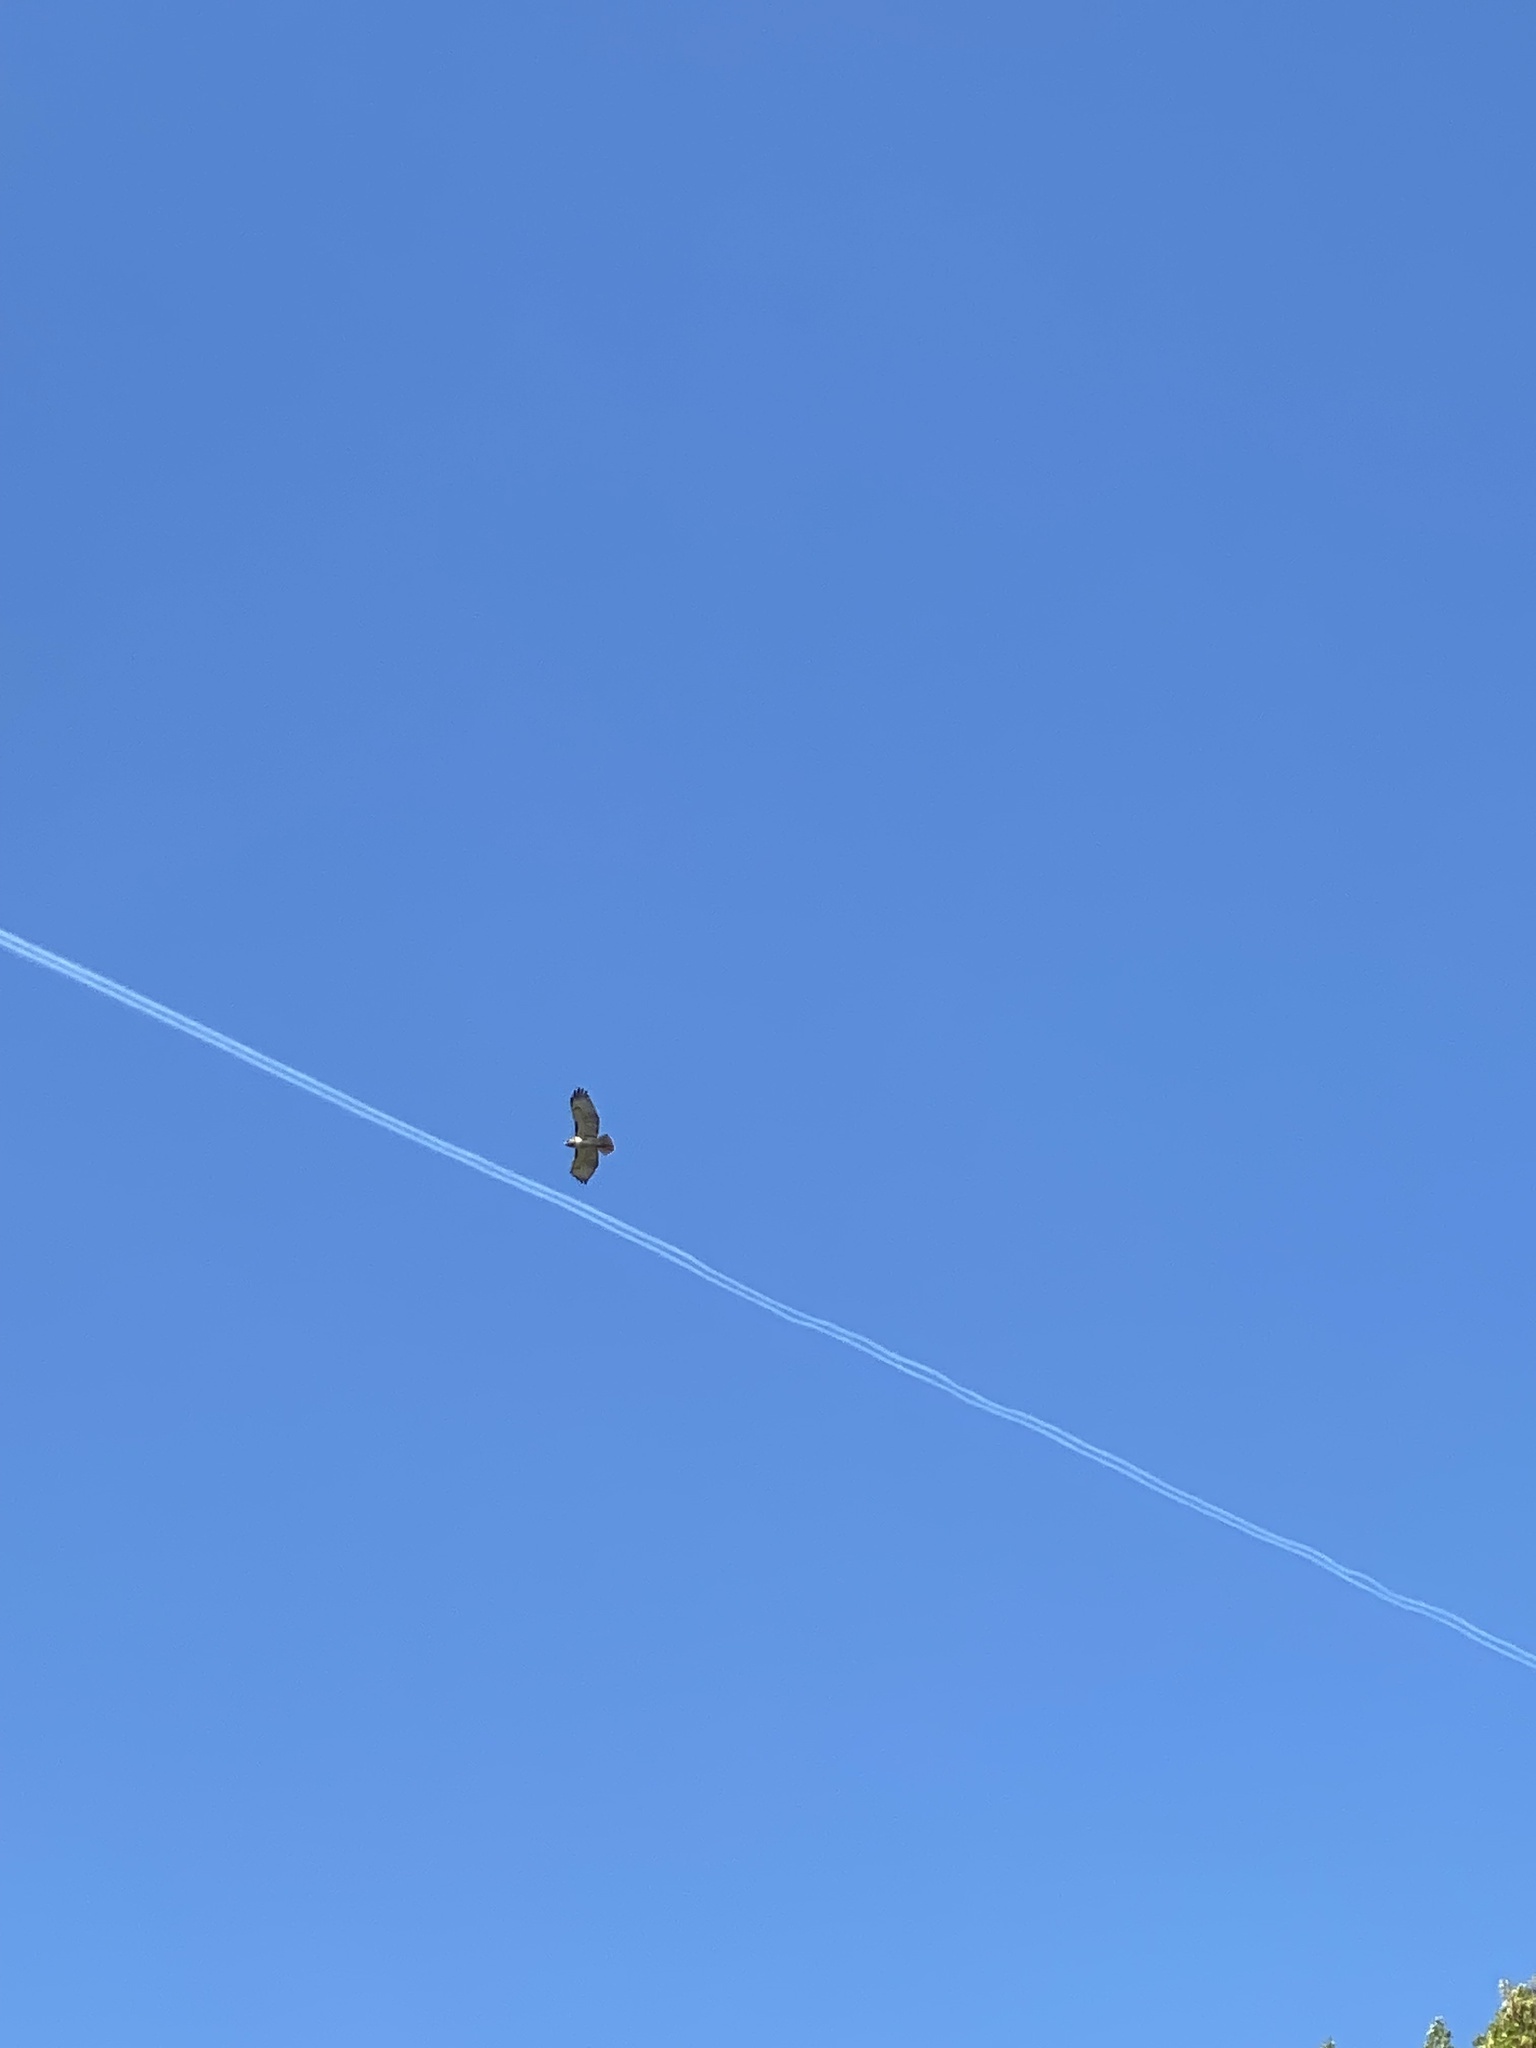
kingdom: Animalia
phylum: Chordata
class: Aves
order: Accipitriformes
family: Accipitridae
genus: Buteo
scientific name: Buteo jamaicensis
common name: Red-tailed hawk
